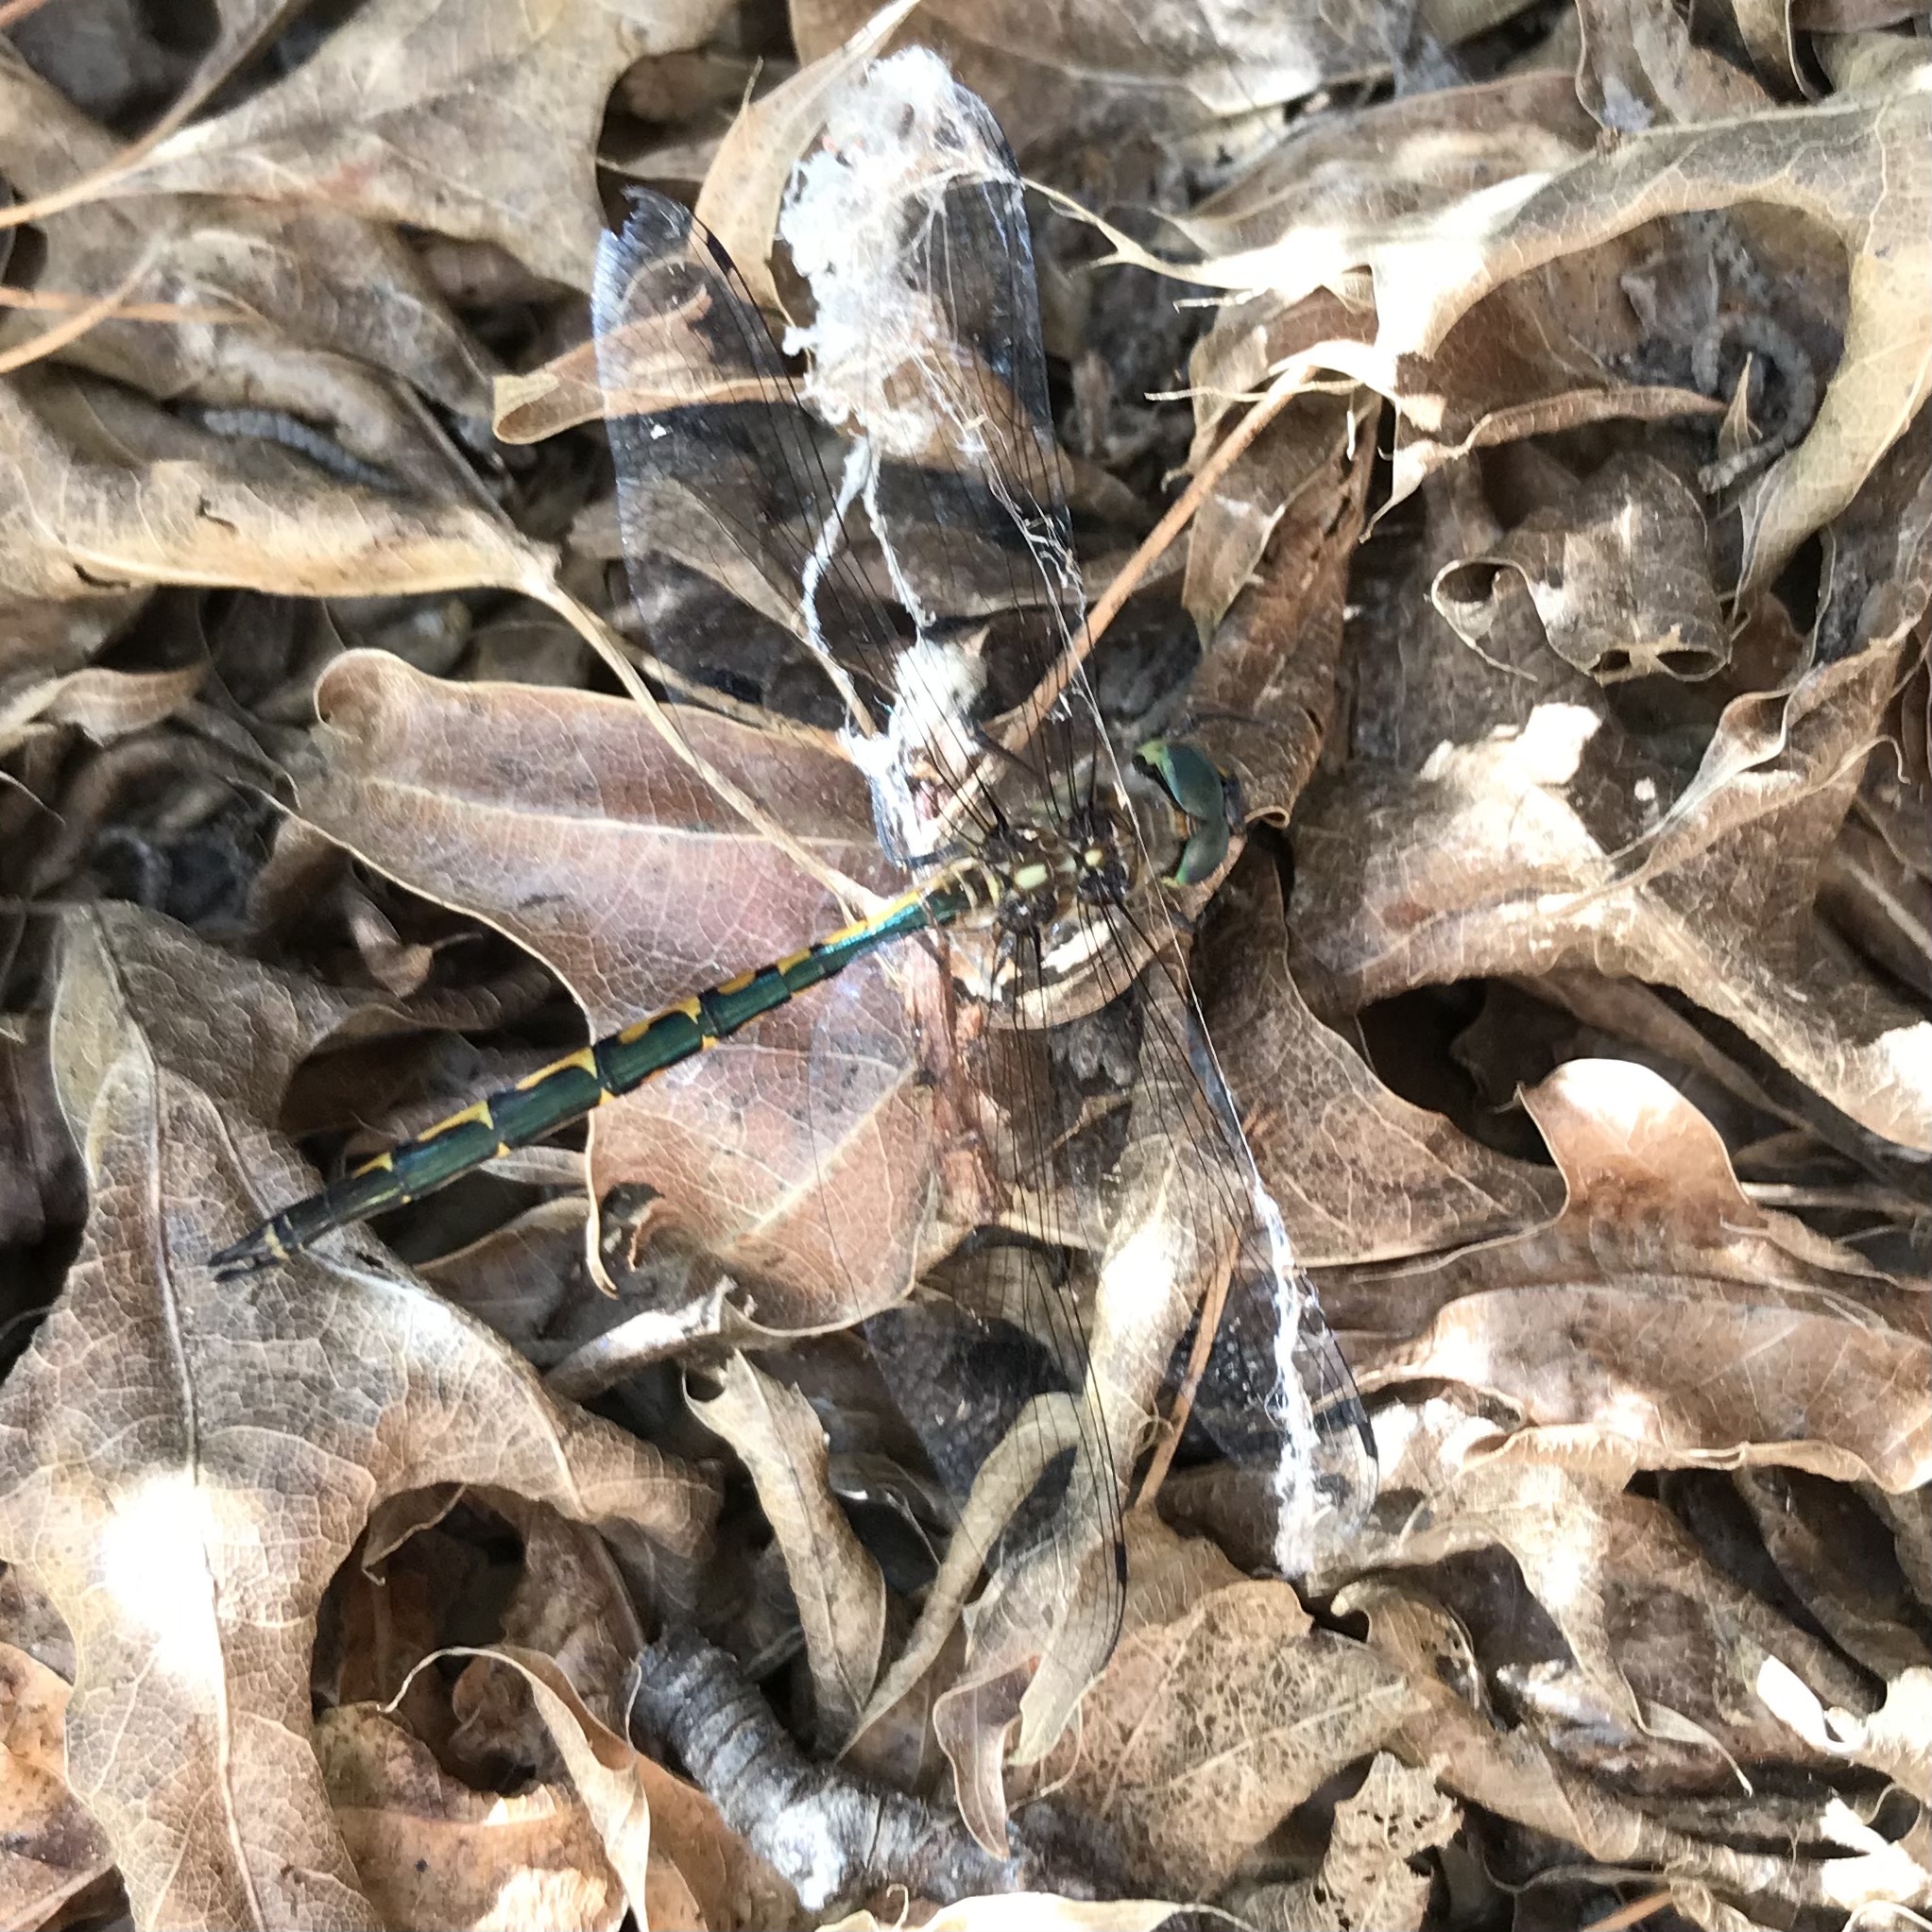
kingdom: Animalia
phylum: Arthropoda
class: Insecta
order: Odonata
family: Corduliidae
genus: Hemicordulia
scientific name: Hemicordulia australiae
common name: Sentry dragonfly
